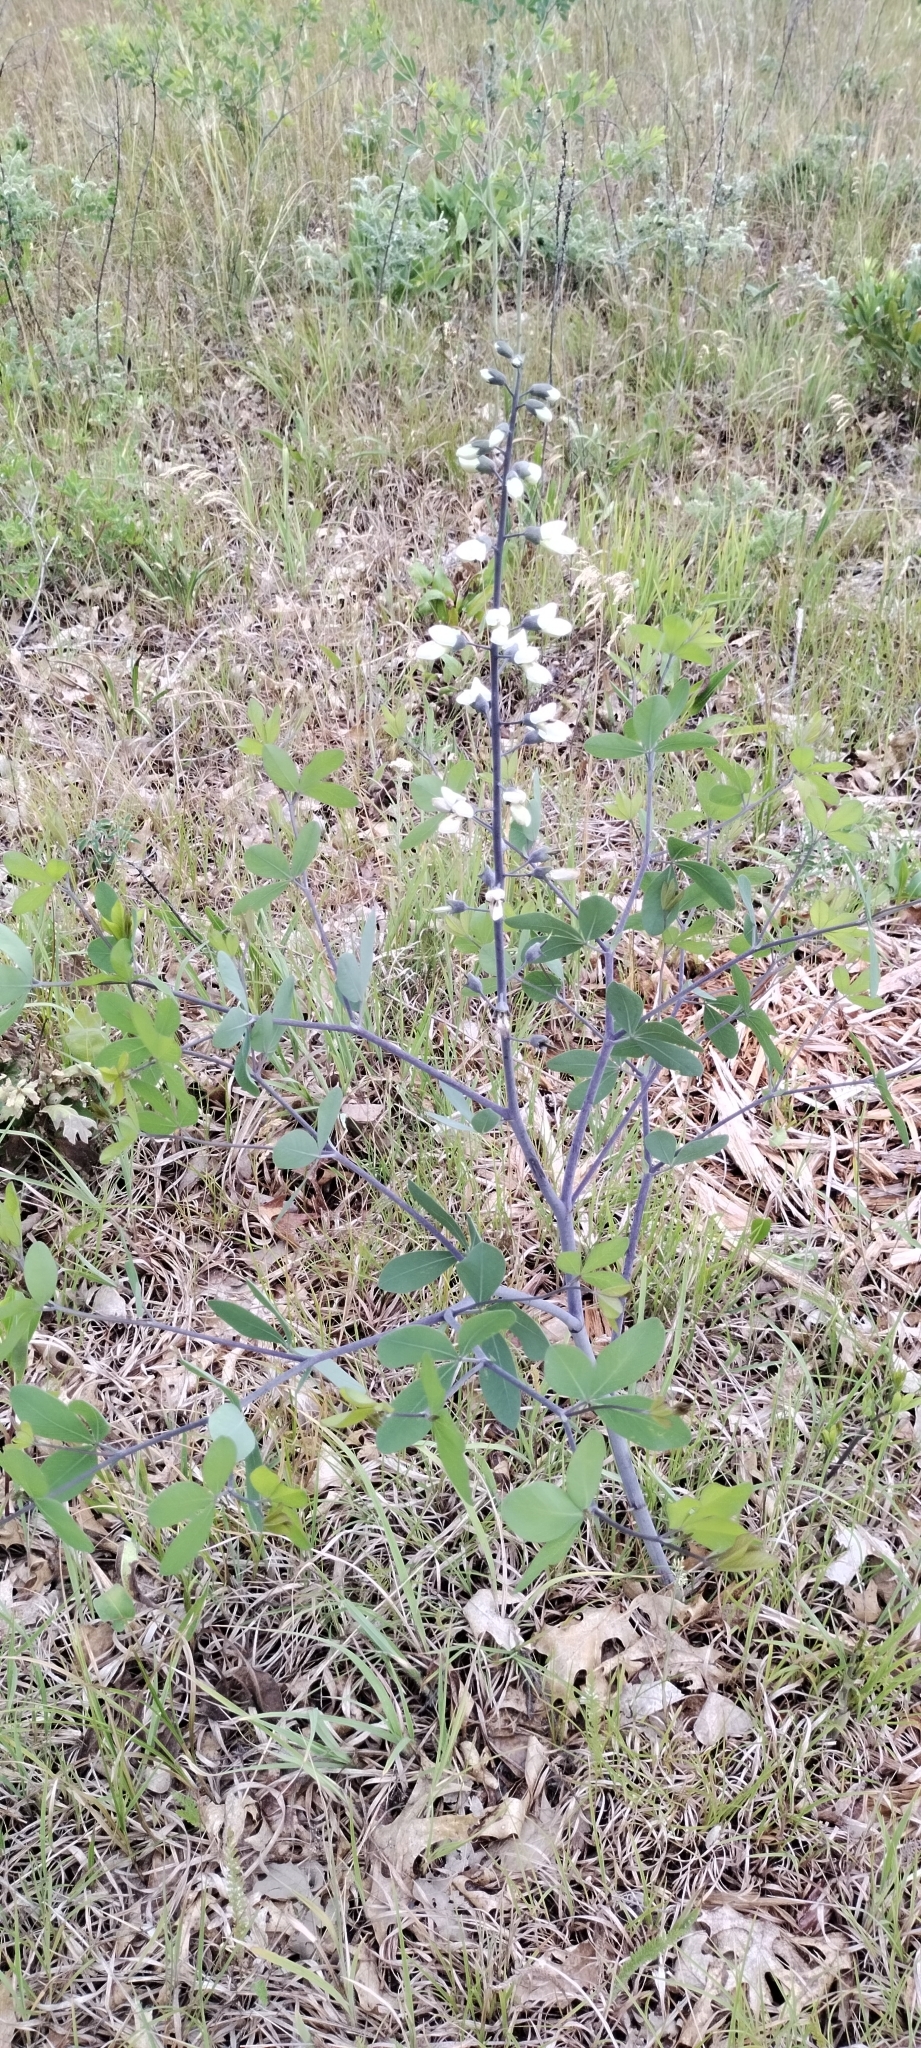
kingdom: Plantae
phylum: Tracheophyta
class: Magnoliopsida
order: Fabales
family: Fabaceae
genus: Baptisia
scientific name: Baptisia alba
